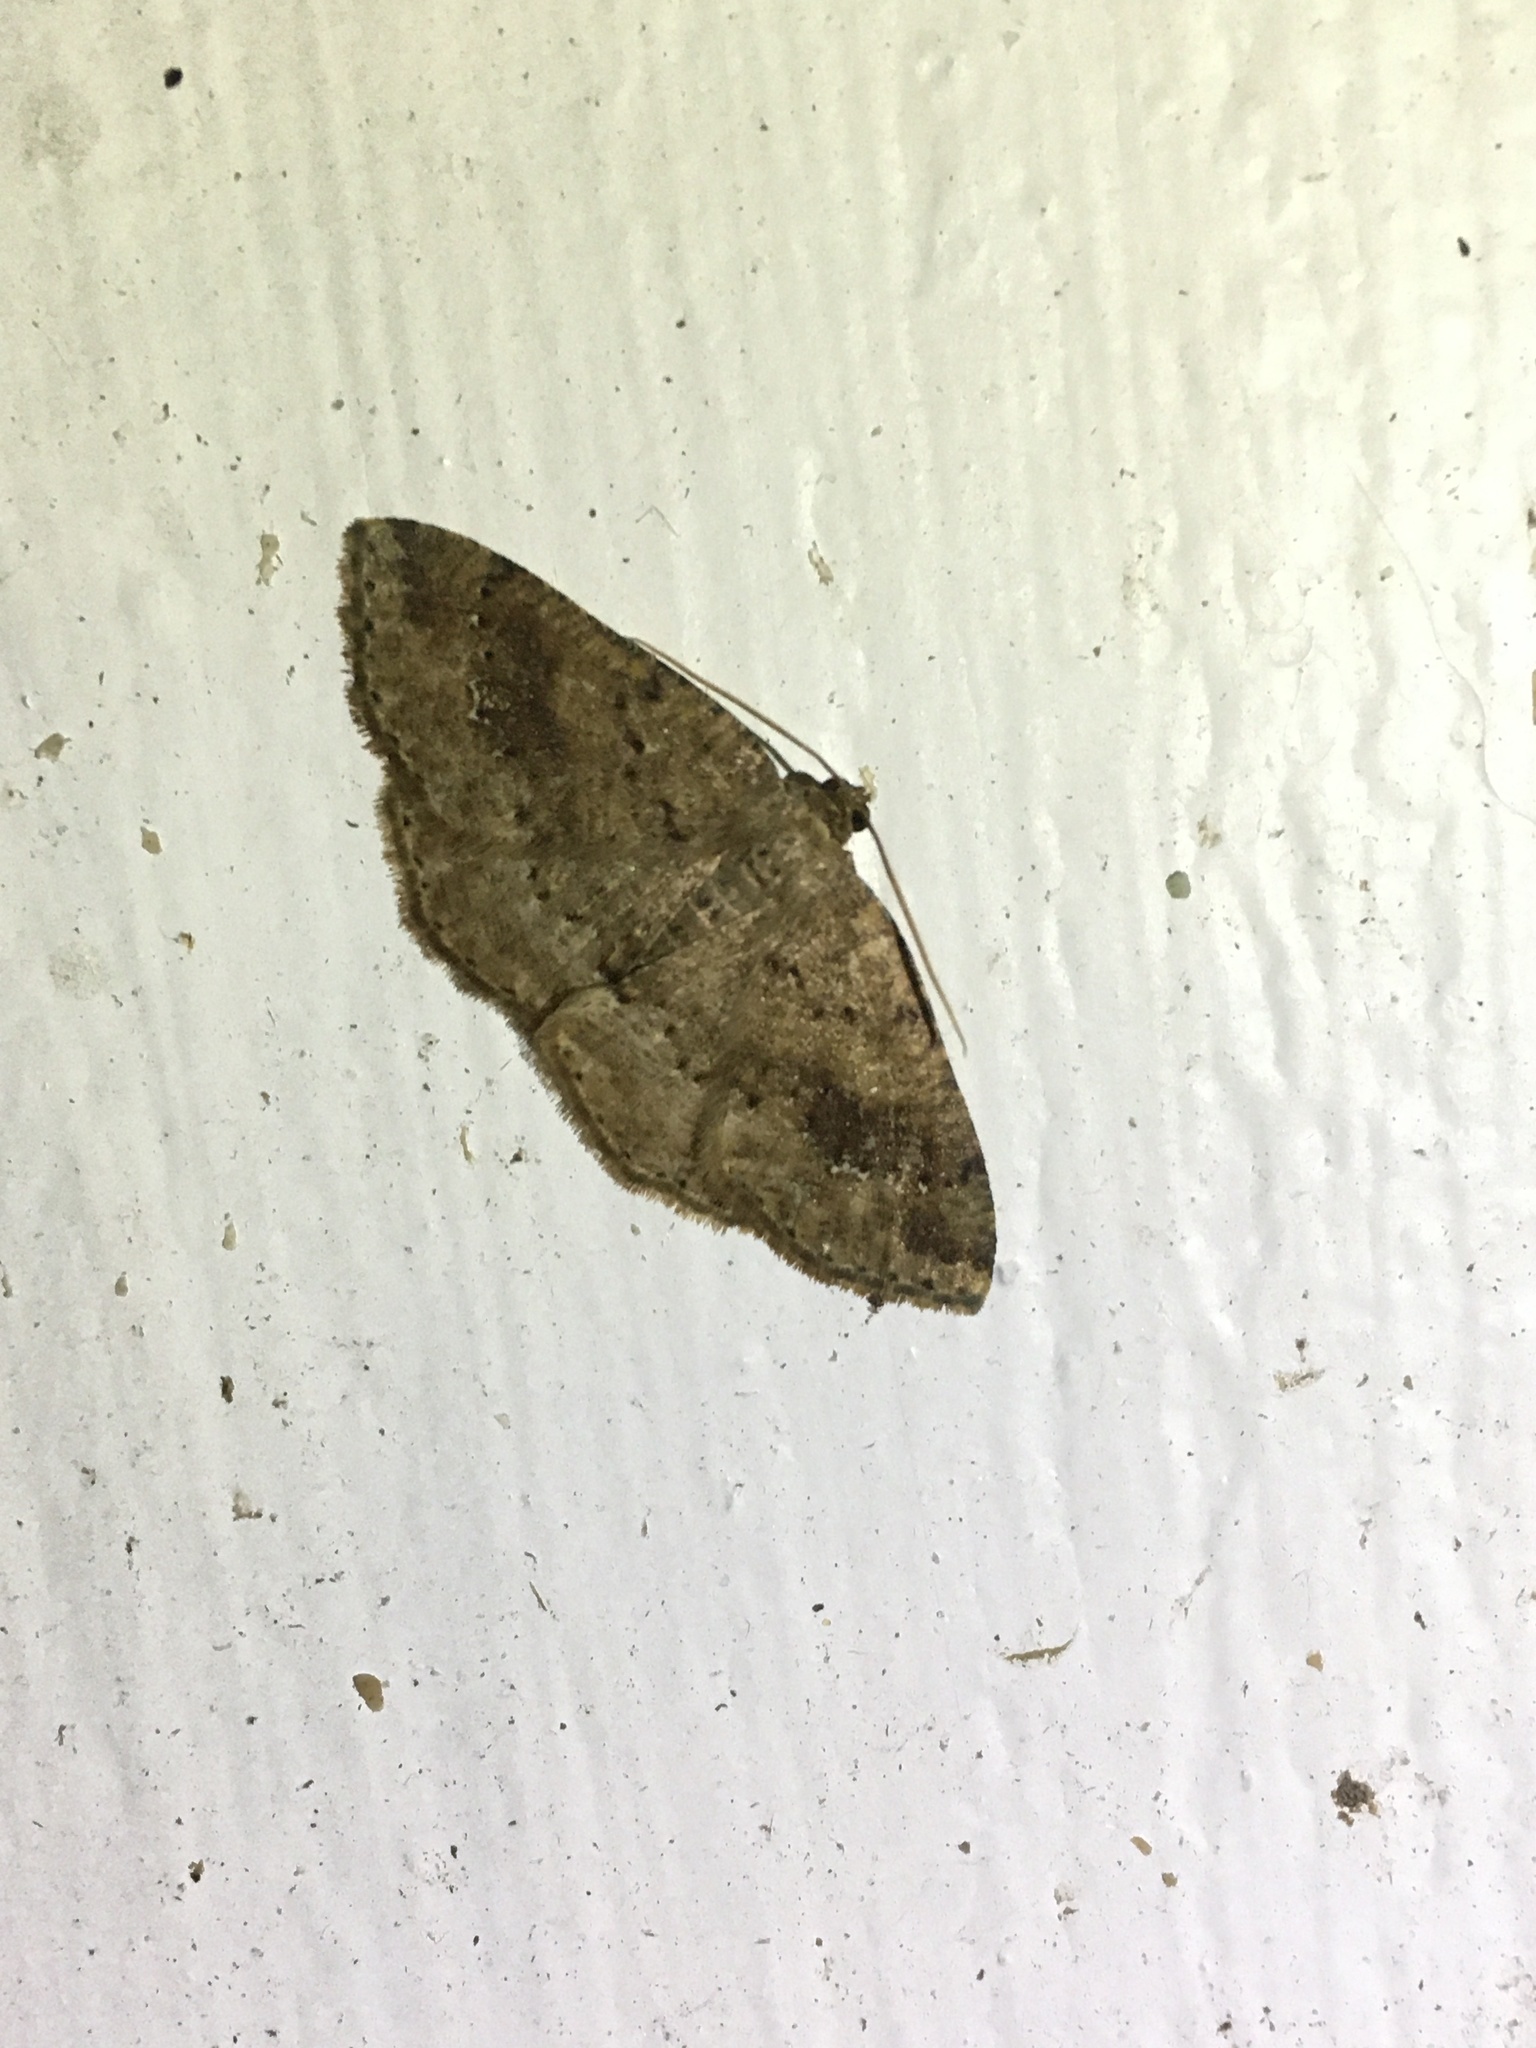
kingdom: Animalia
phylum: Arthropoda
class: Insecta
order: Lepidoptera
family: Geometridae
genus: Homochlodes
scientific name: Homochlodes fritillaria
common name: Pale homochlodes
